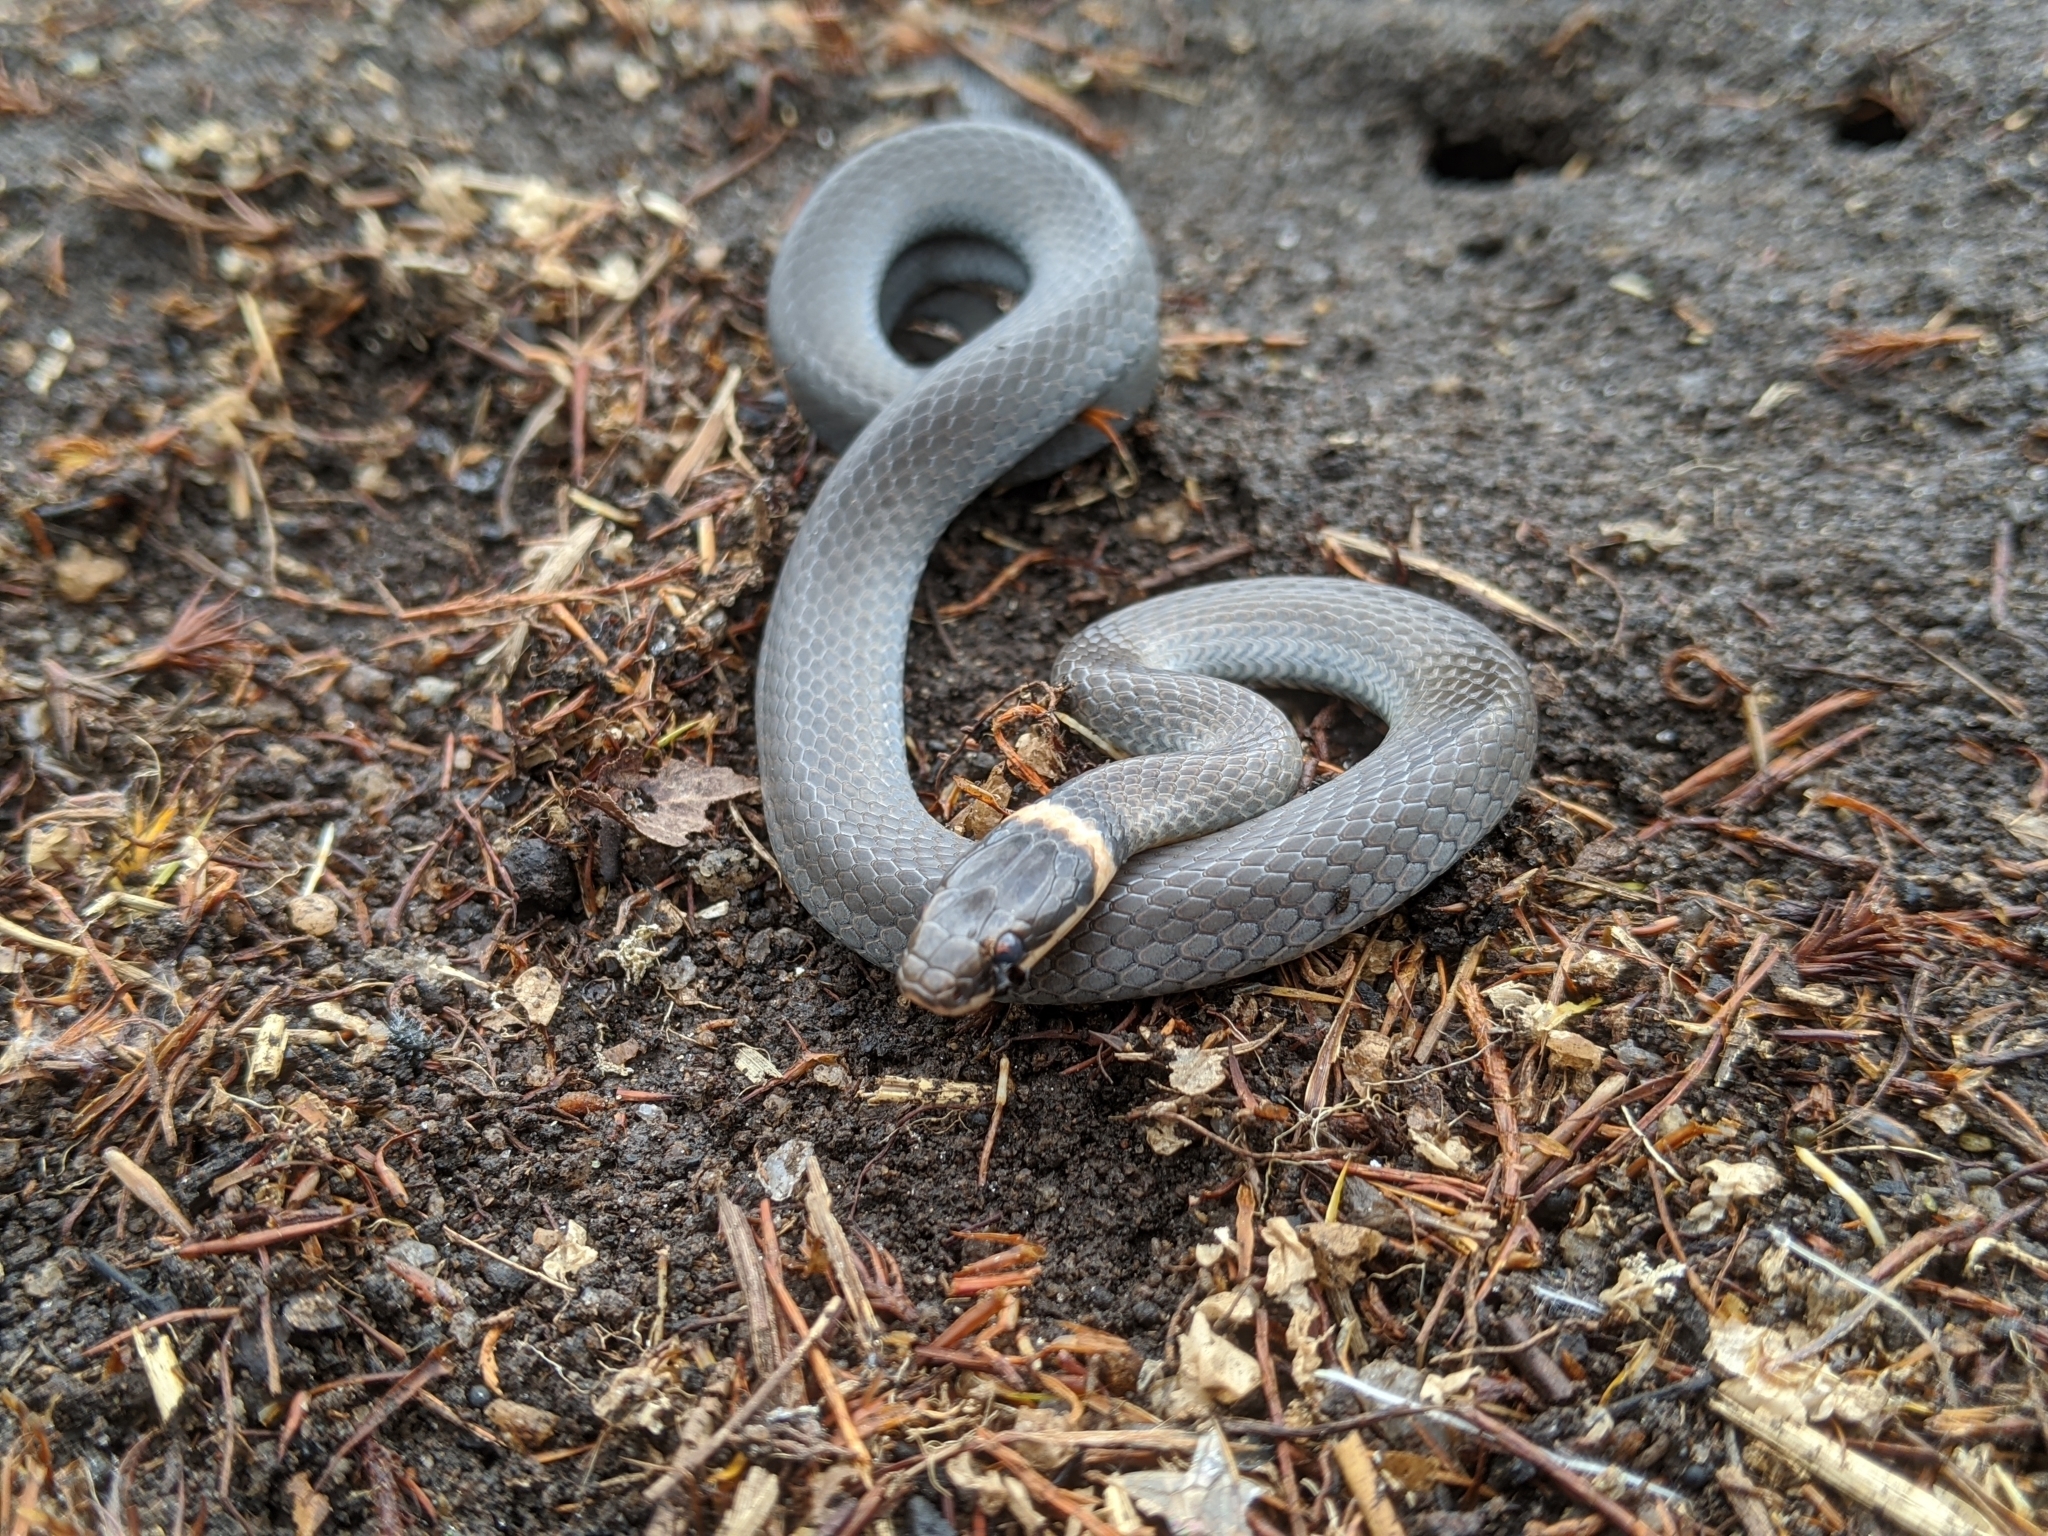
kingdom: Animalia
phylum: Chordata
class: Squamata
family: Colubridae
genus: Diadophis
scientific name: Diadophis punctatus
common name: Ringneck snake
